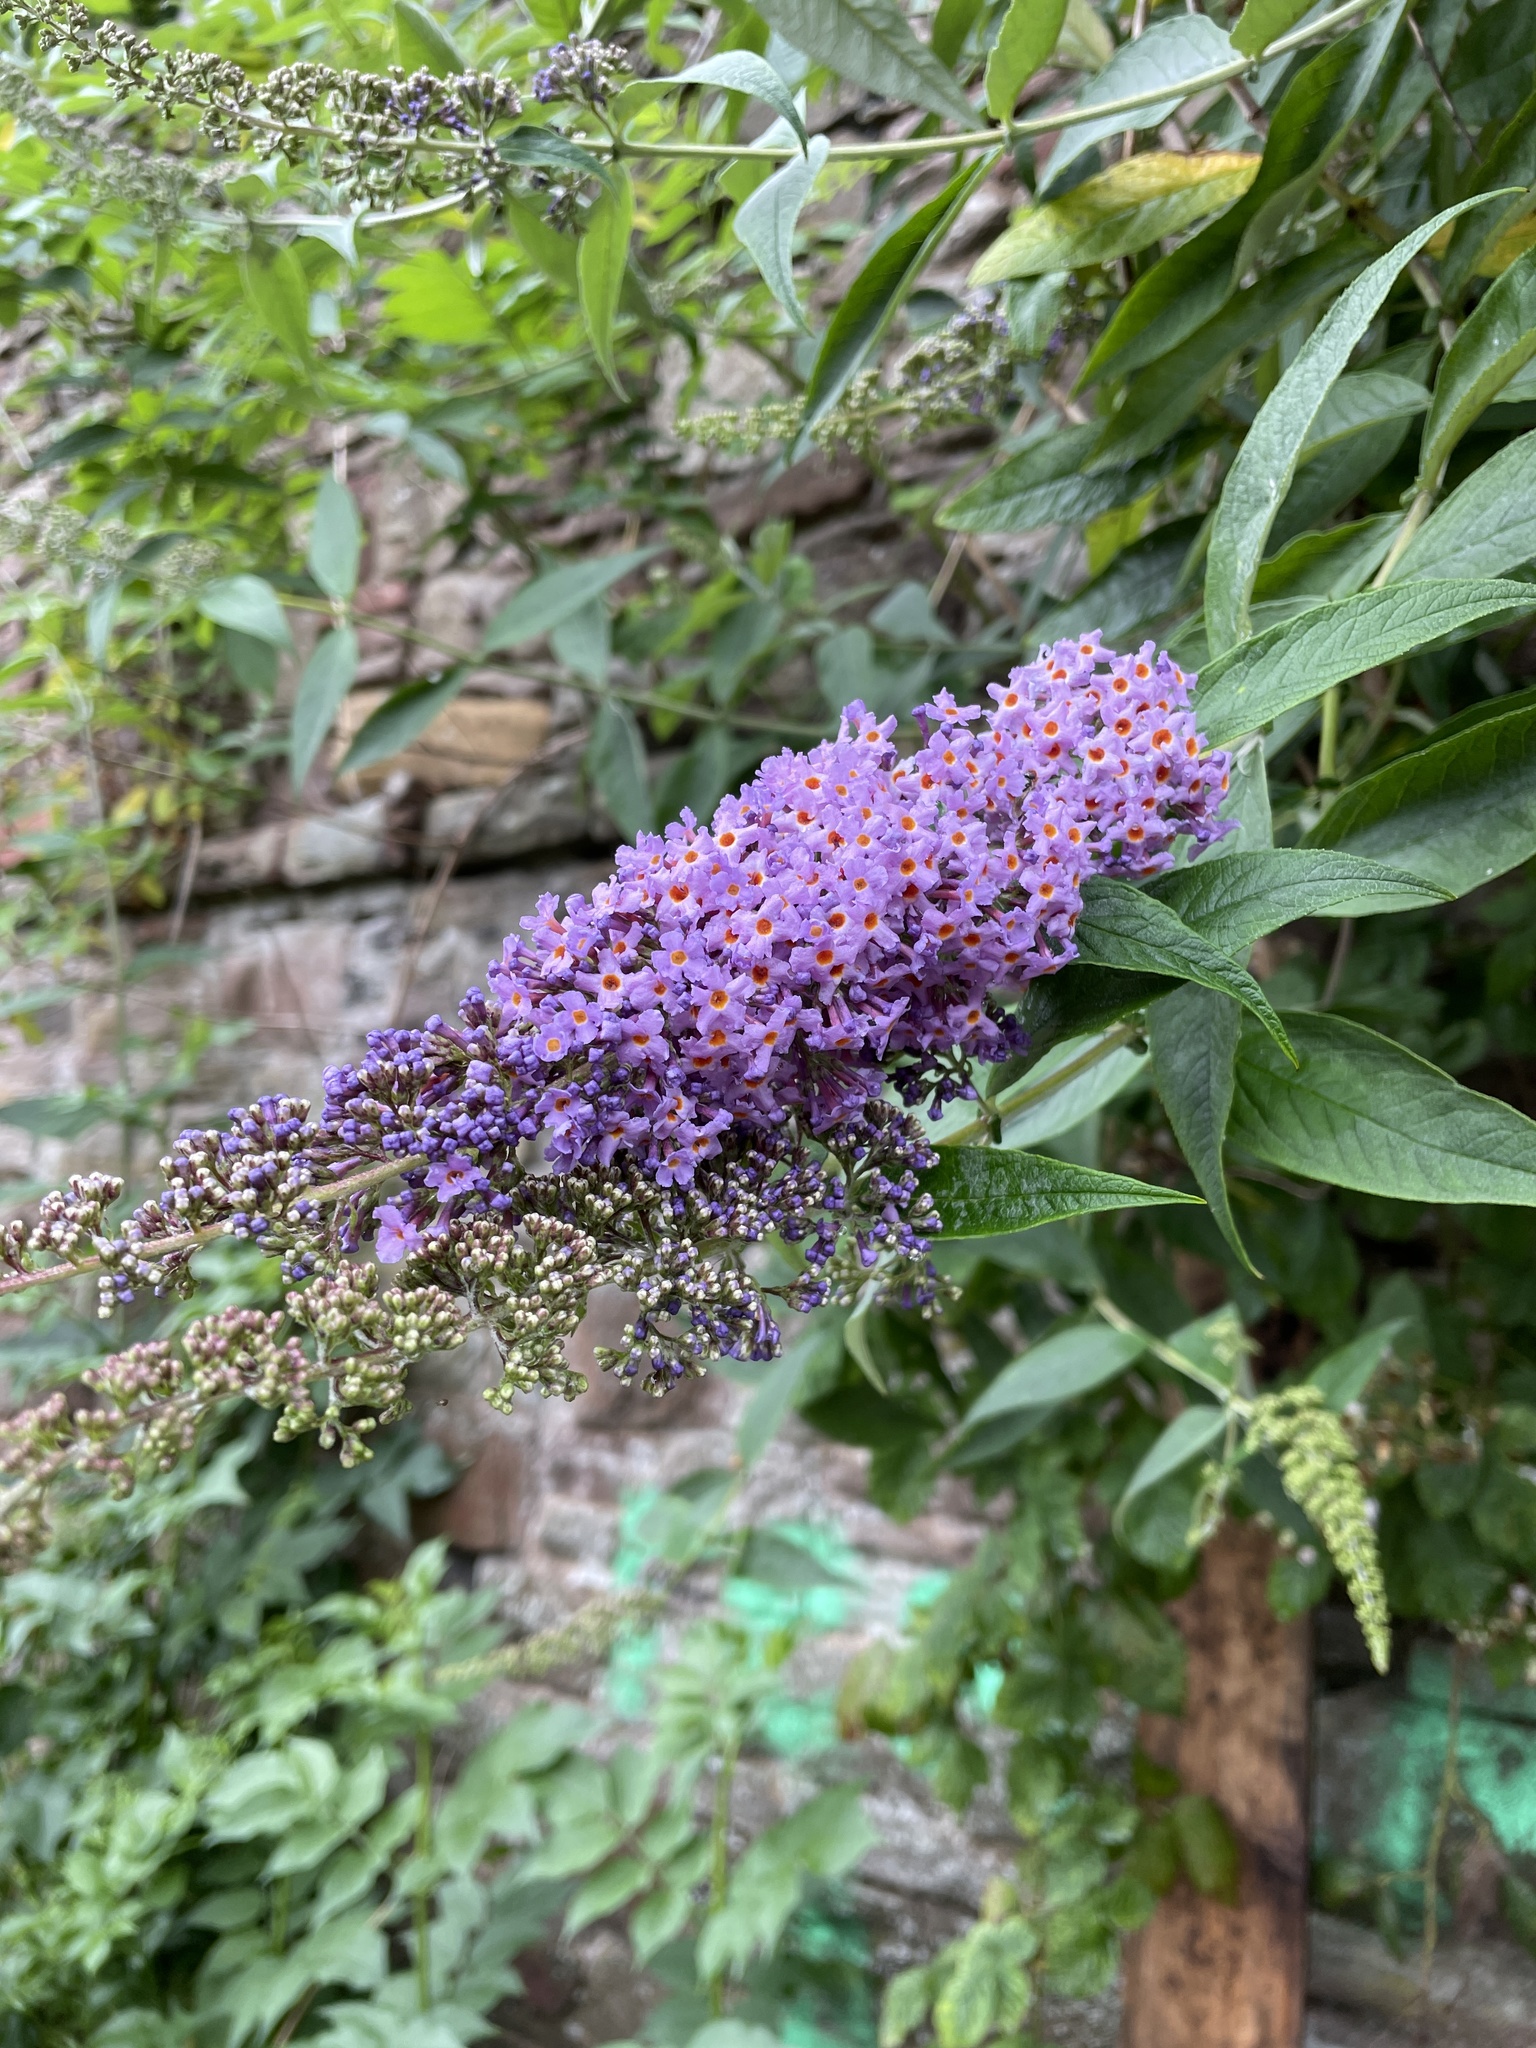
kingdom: Plantae
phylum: Tracheophyta
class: Magnoliopsida
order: Lamiales
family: Scrophulariaceae
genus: Buddleja
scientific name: Buddleja davidii
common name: Butterfly-bush
